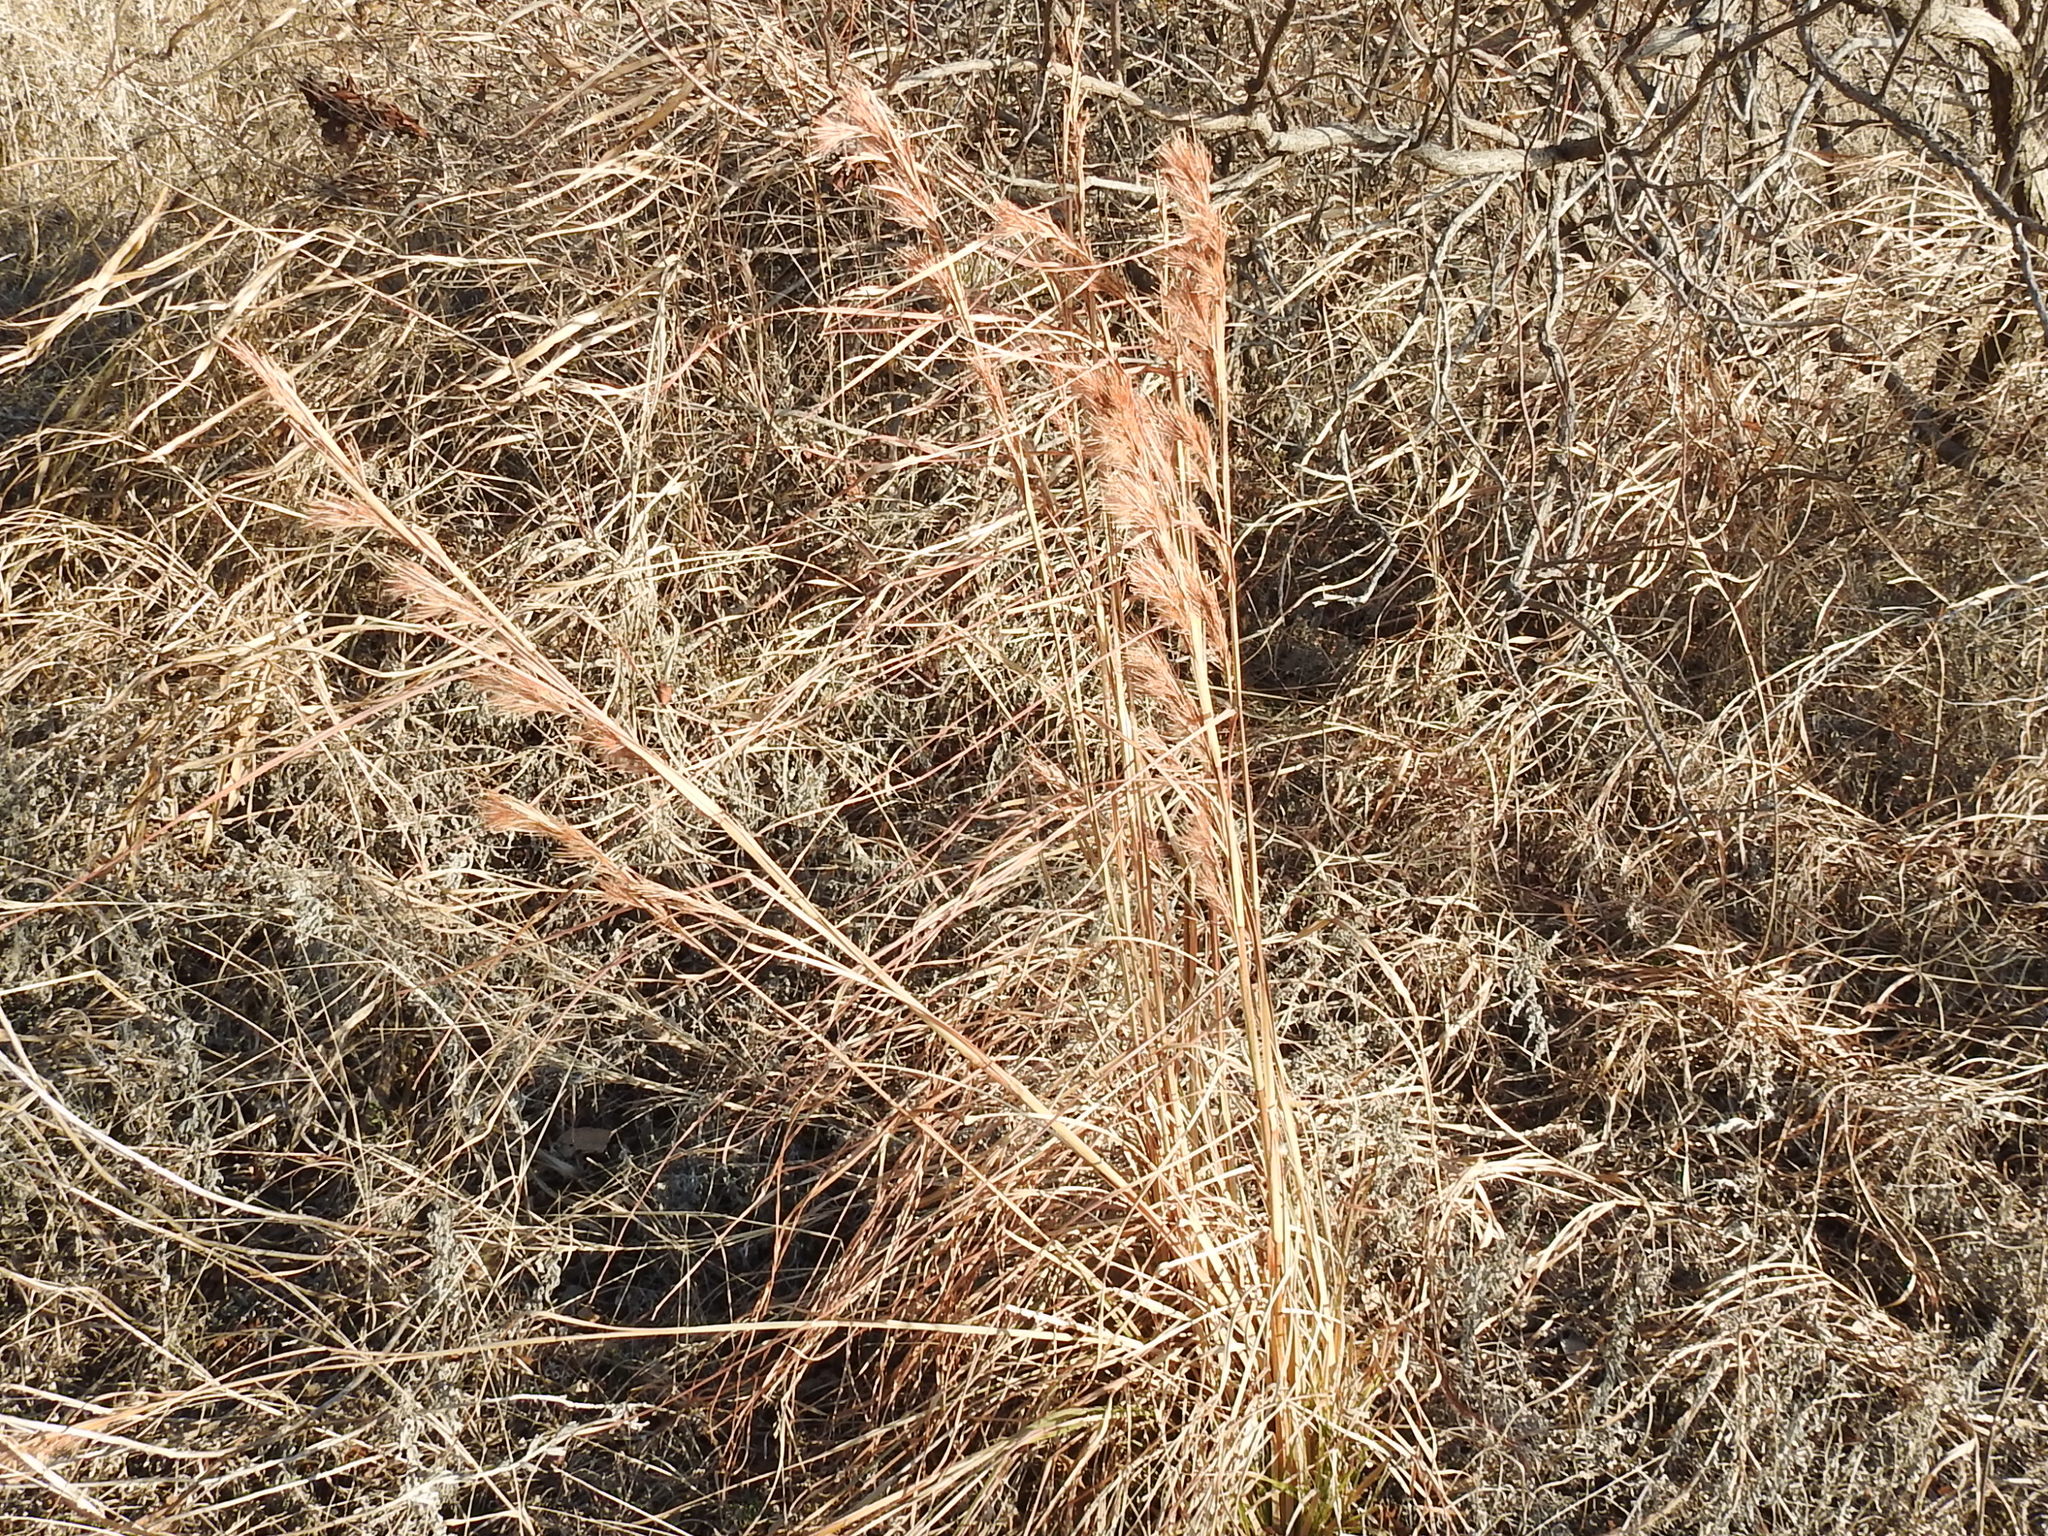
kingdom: Plantae
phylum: Tracheophyta
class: Liliopsida
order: Poales
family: Poaceae
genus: Andropogon
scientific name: Andropogon tenuispatheus
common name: Bushy bluestem
